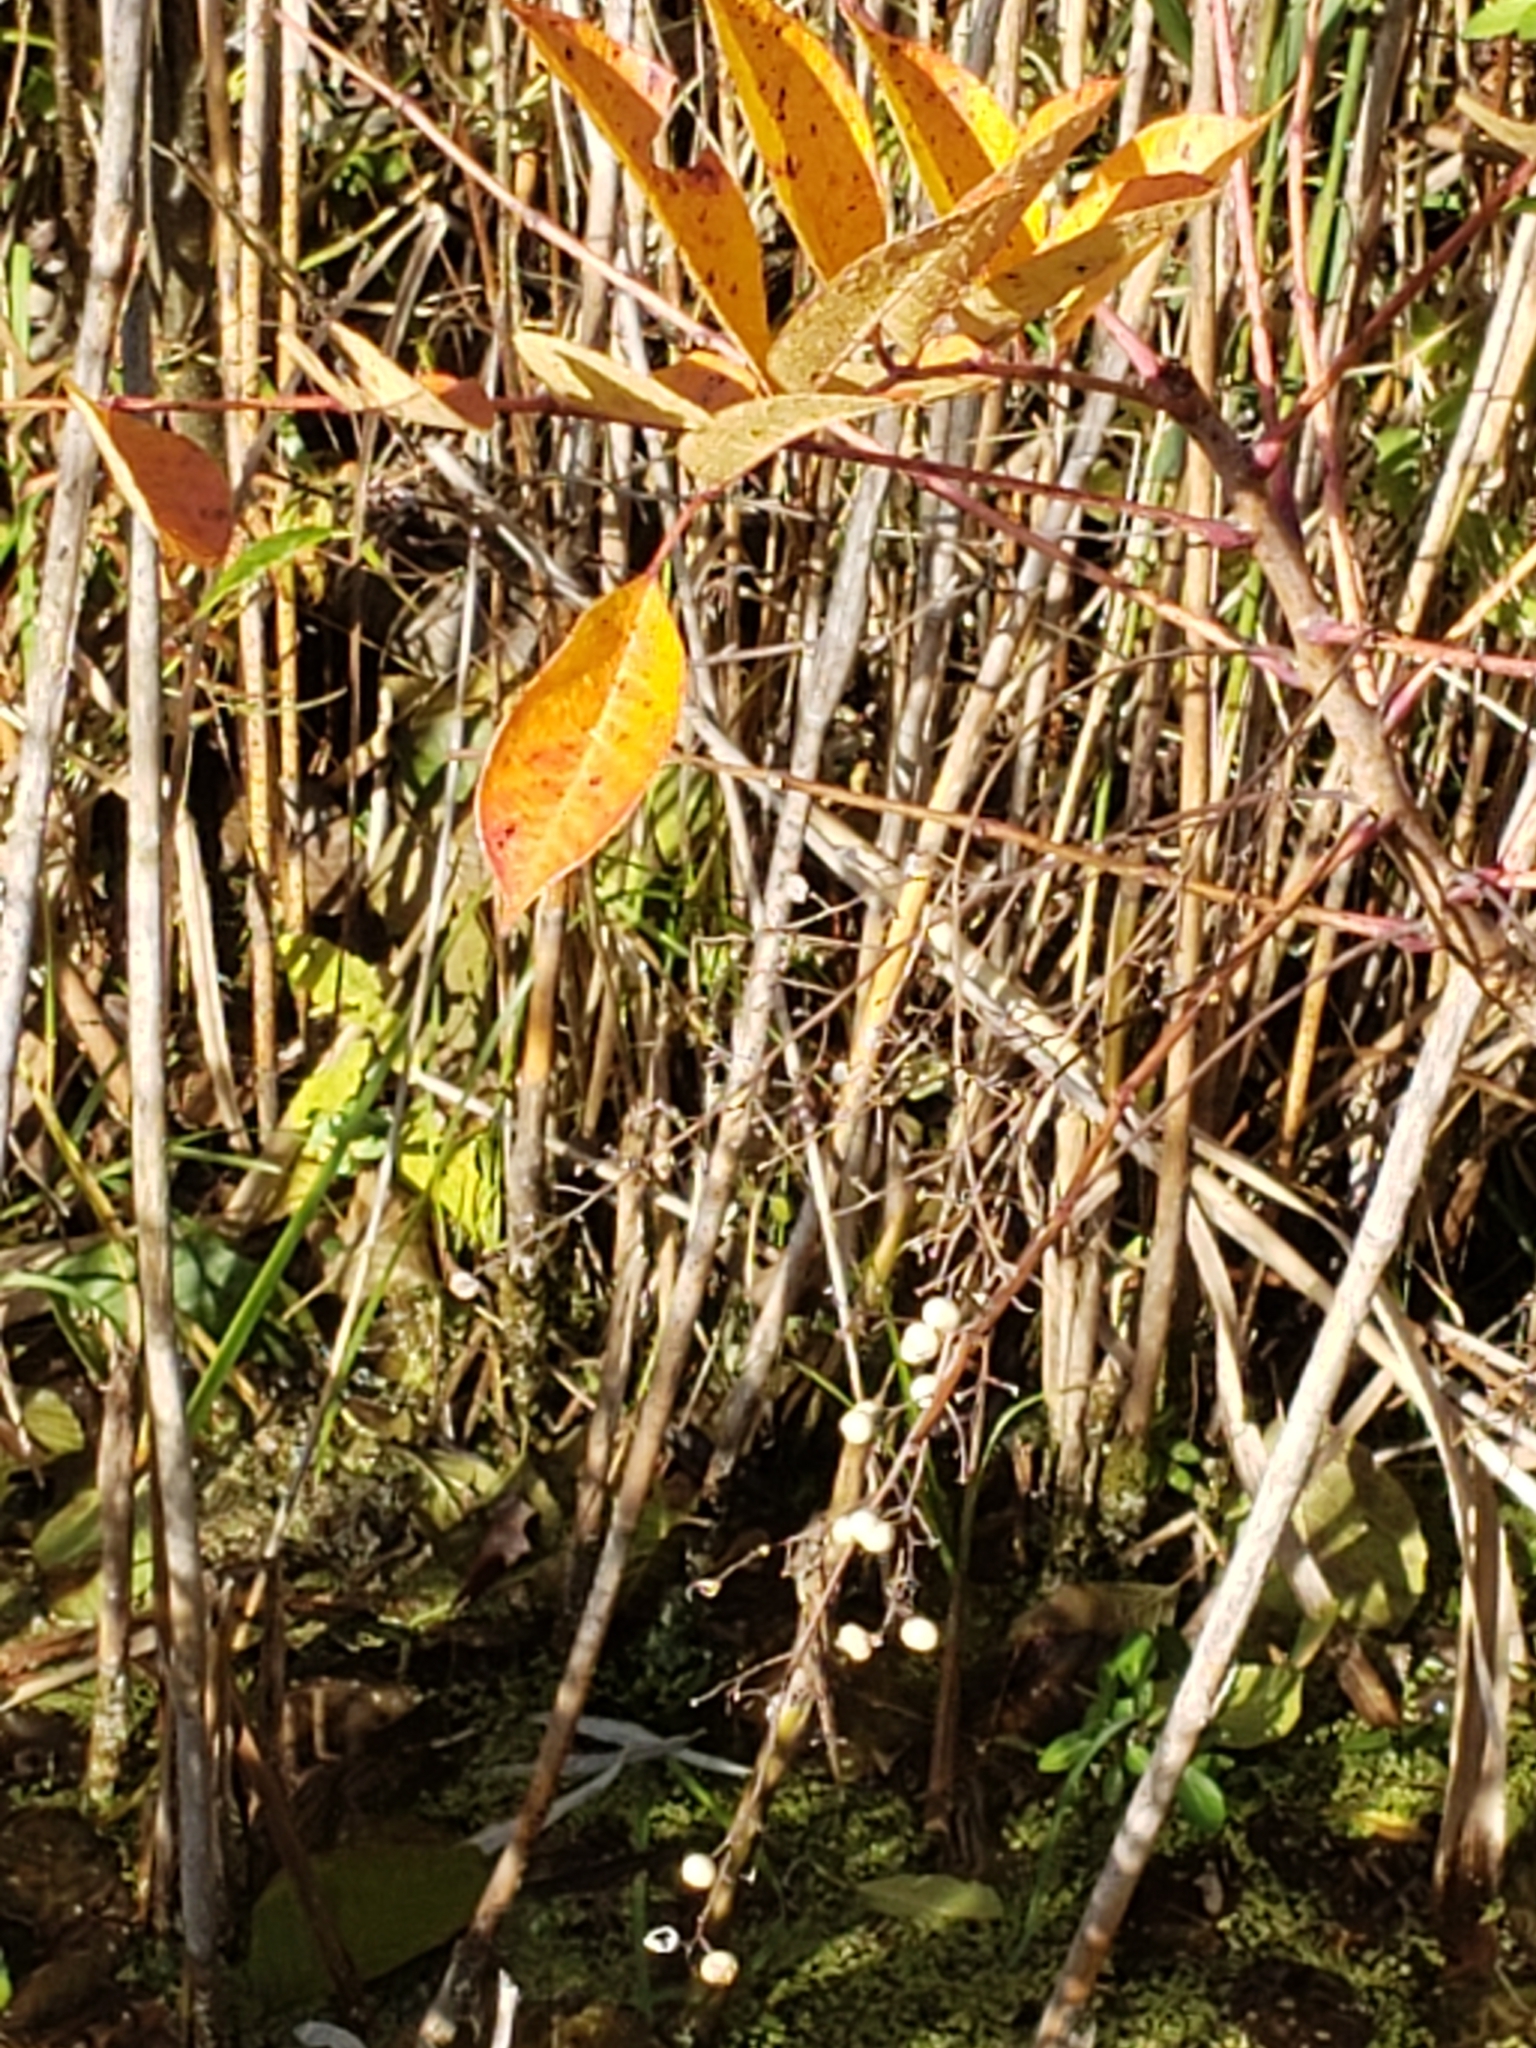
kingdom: Plantae
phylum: Tracheophyta
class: Magnoliopsida
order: Sapindales
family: Anacardiaceae
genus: Toxicodendron
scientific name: Toxicodendron vernix
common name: Poison sumac
